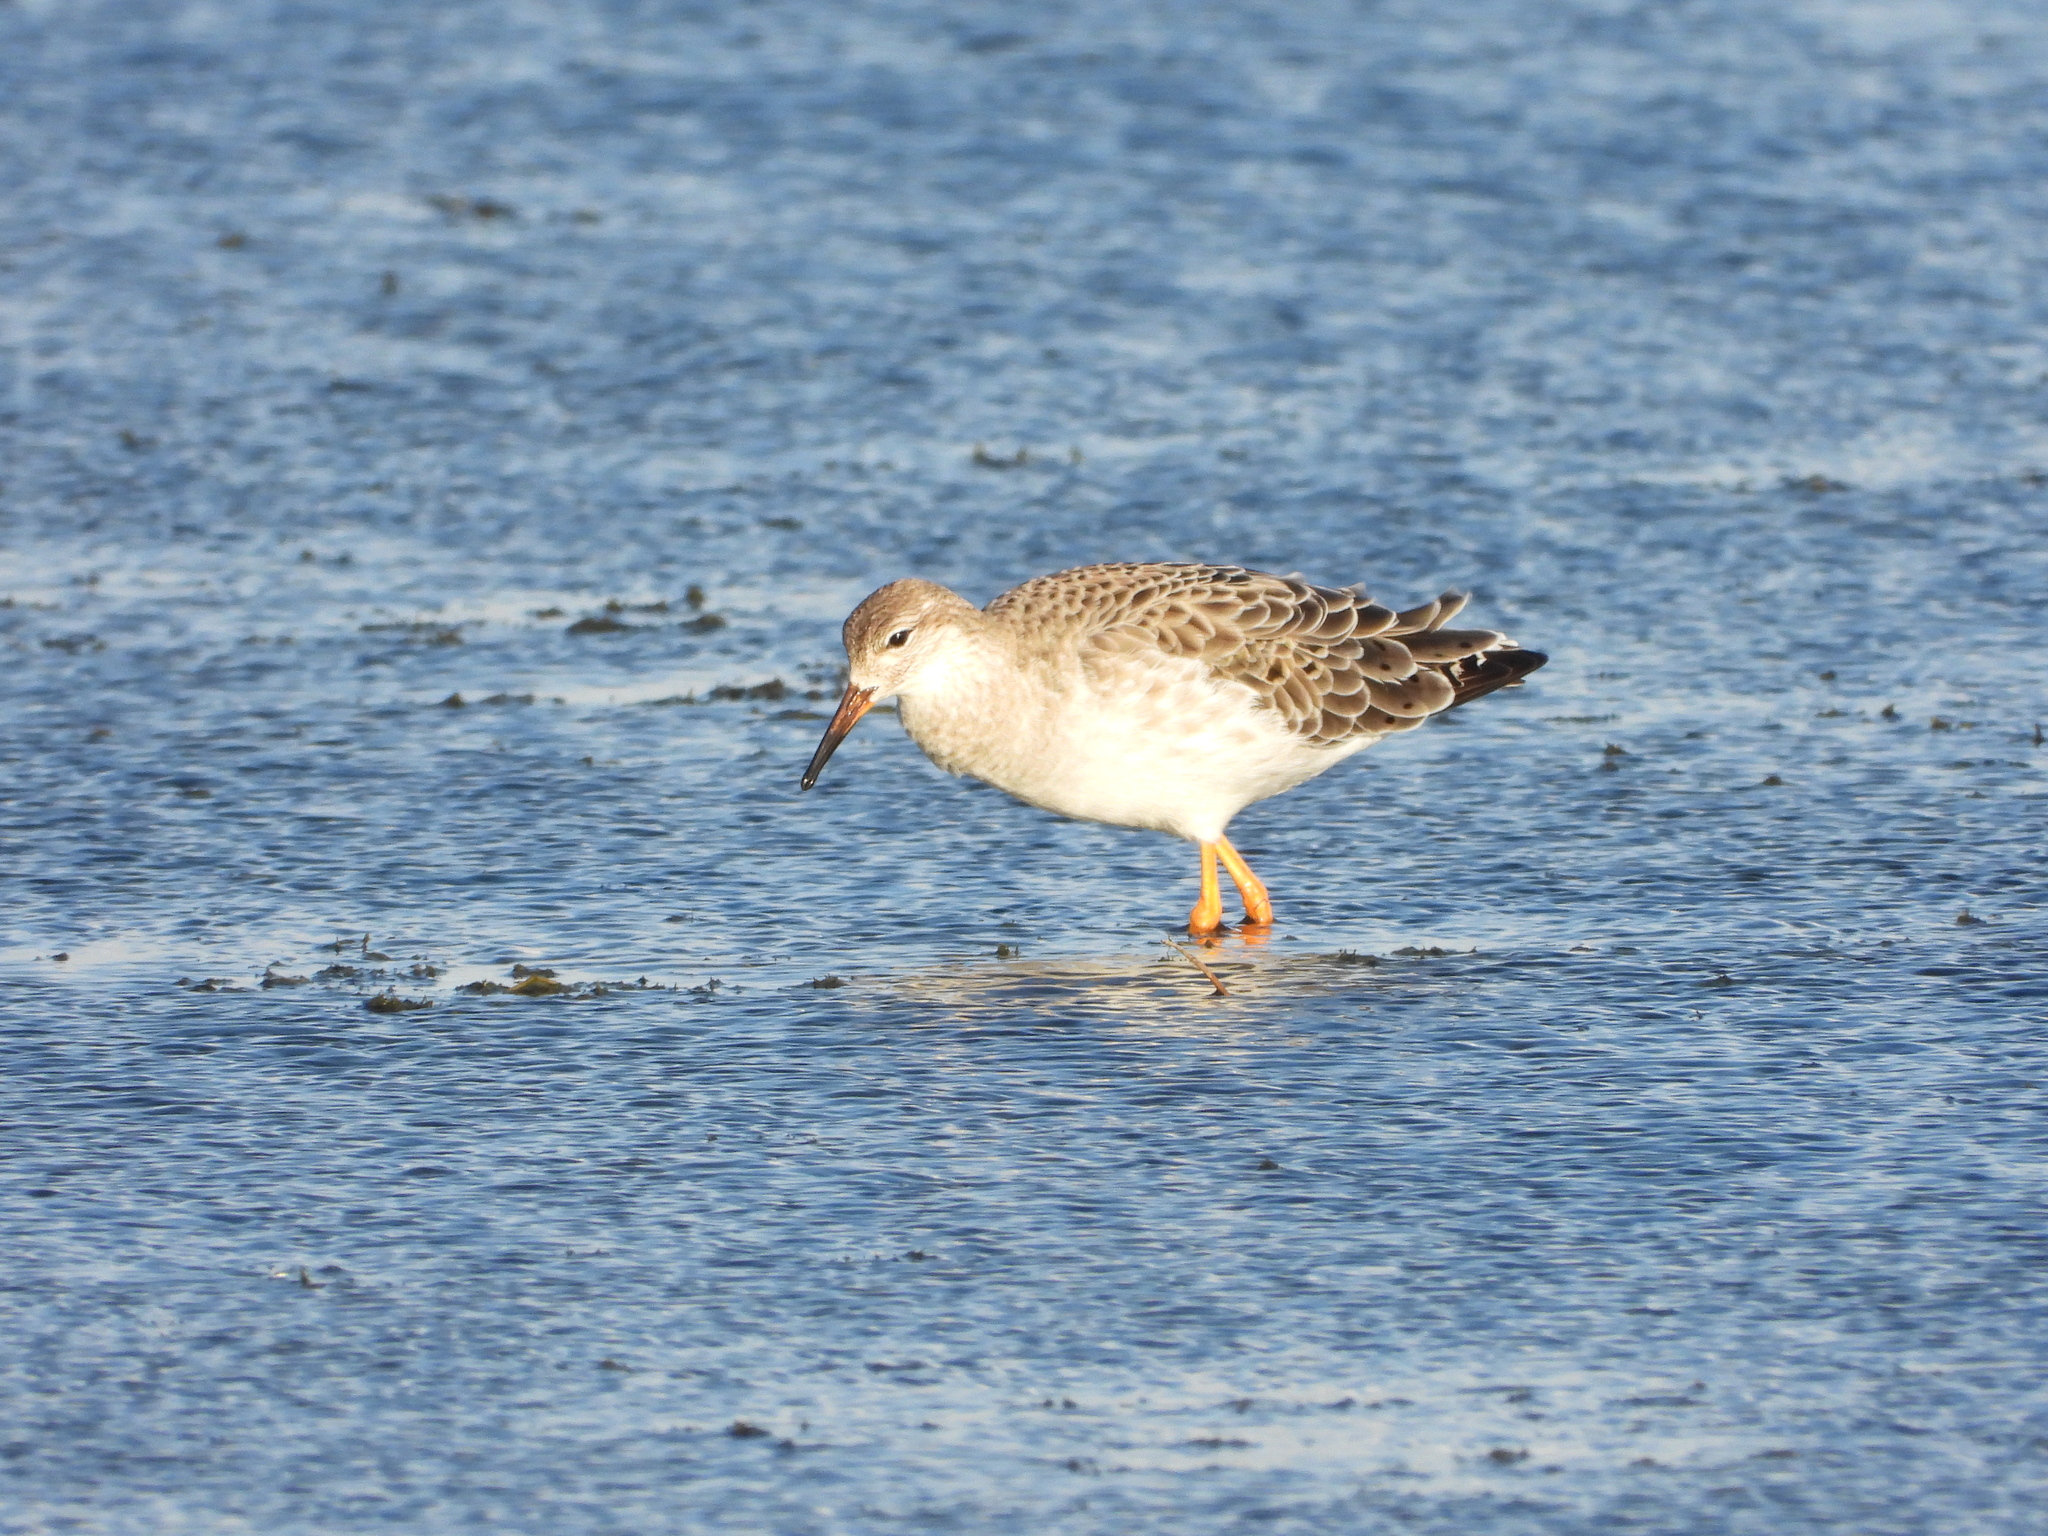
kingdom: Animalia
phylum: Chordata
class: Aves
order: Charadriiformes
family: Scolopacidae
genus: Calidris
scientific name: Calidris pugnax
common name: Ruff
